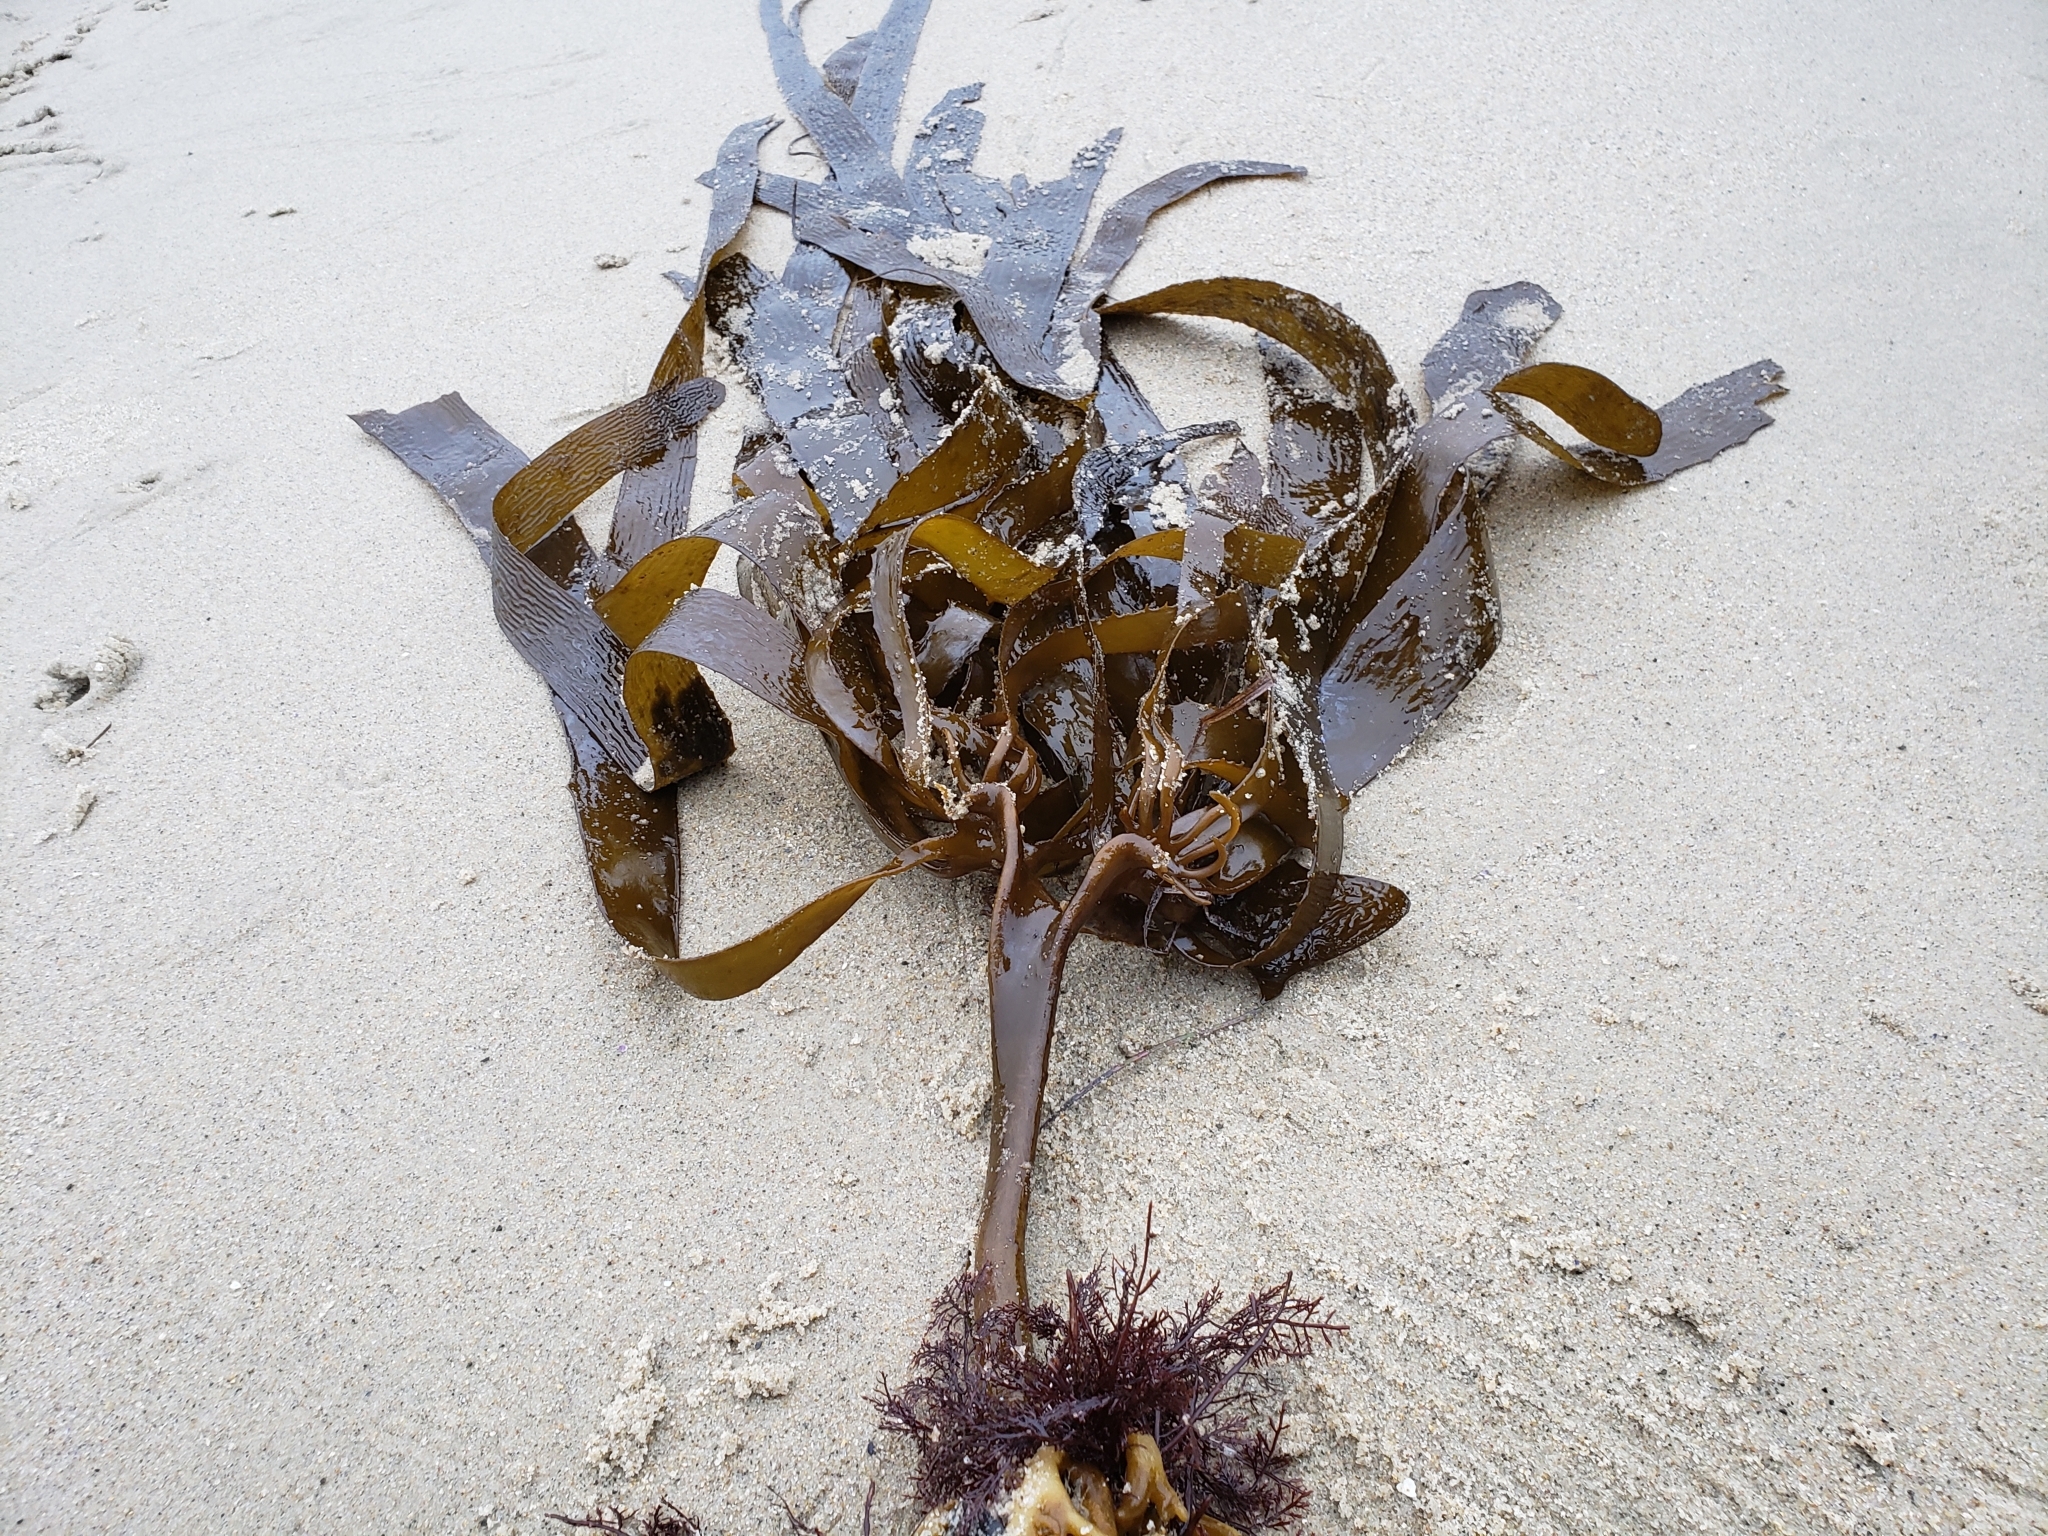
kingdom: Chromista
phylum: Ochrophyta
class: Phaeophyceae
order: Laminariales
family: Lessoniaceae
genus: Eisenia
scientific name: Eisenia arborea
